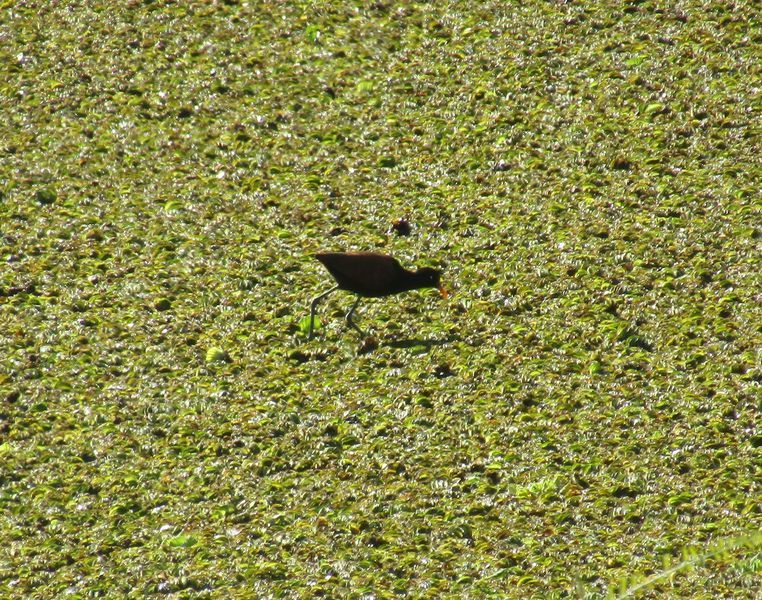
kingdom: Animalia
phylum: Chordata
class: Aves
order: Charadriiformes
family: Jacanidae
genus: Jacana
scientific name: Jacana jacana
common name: Wattled jacana
